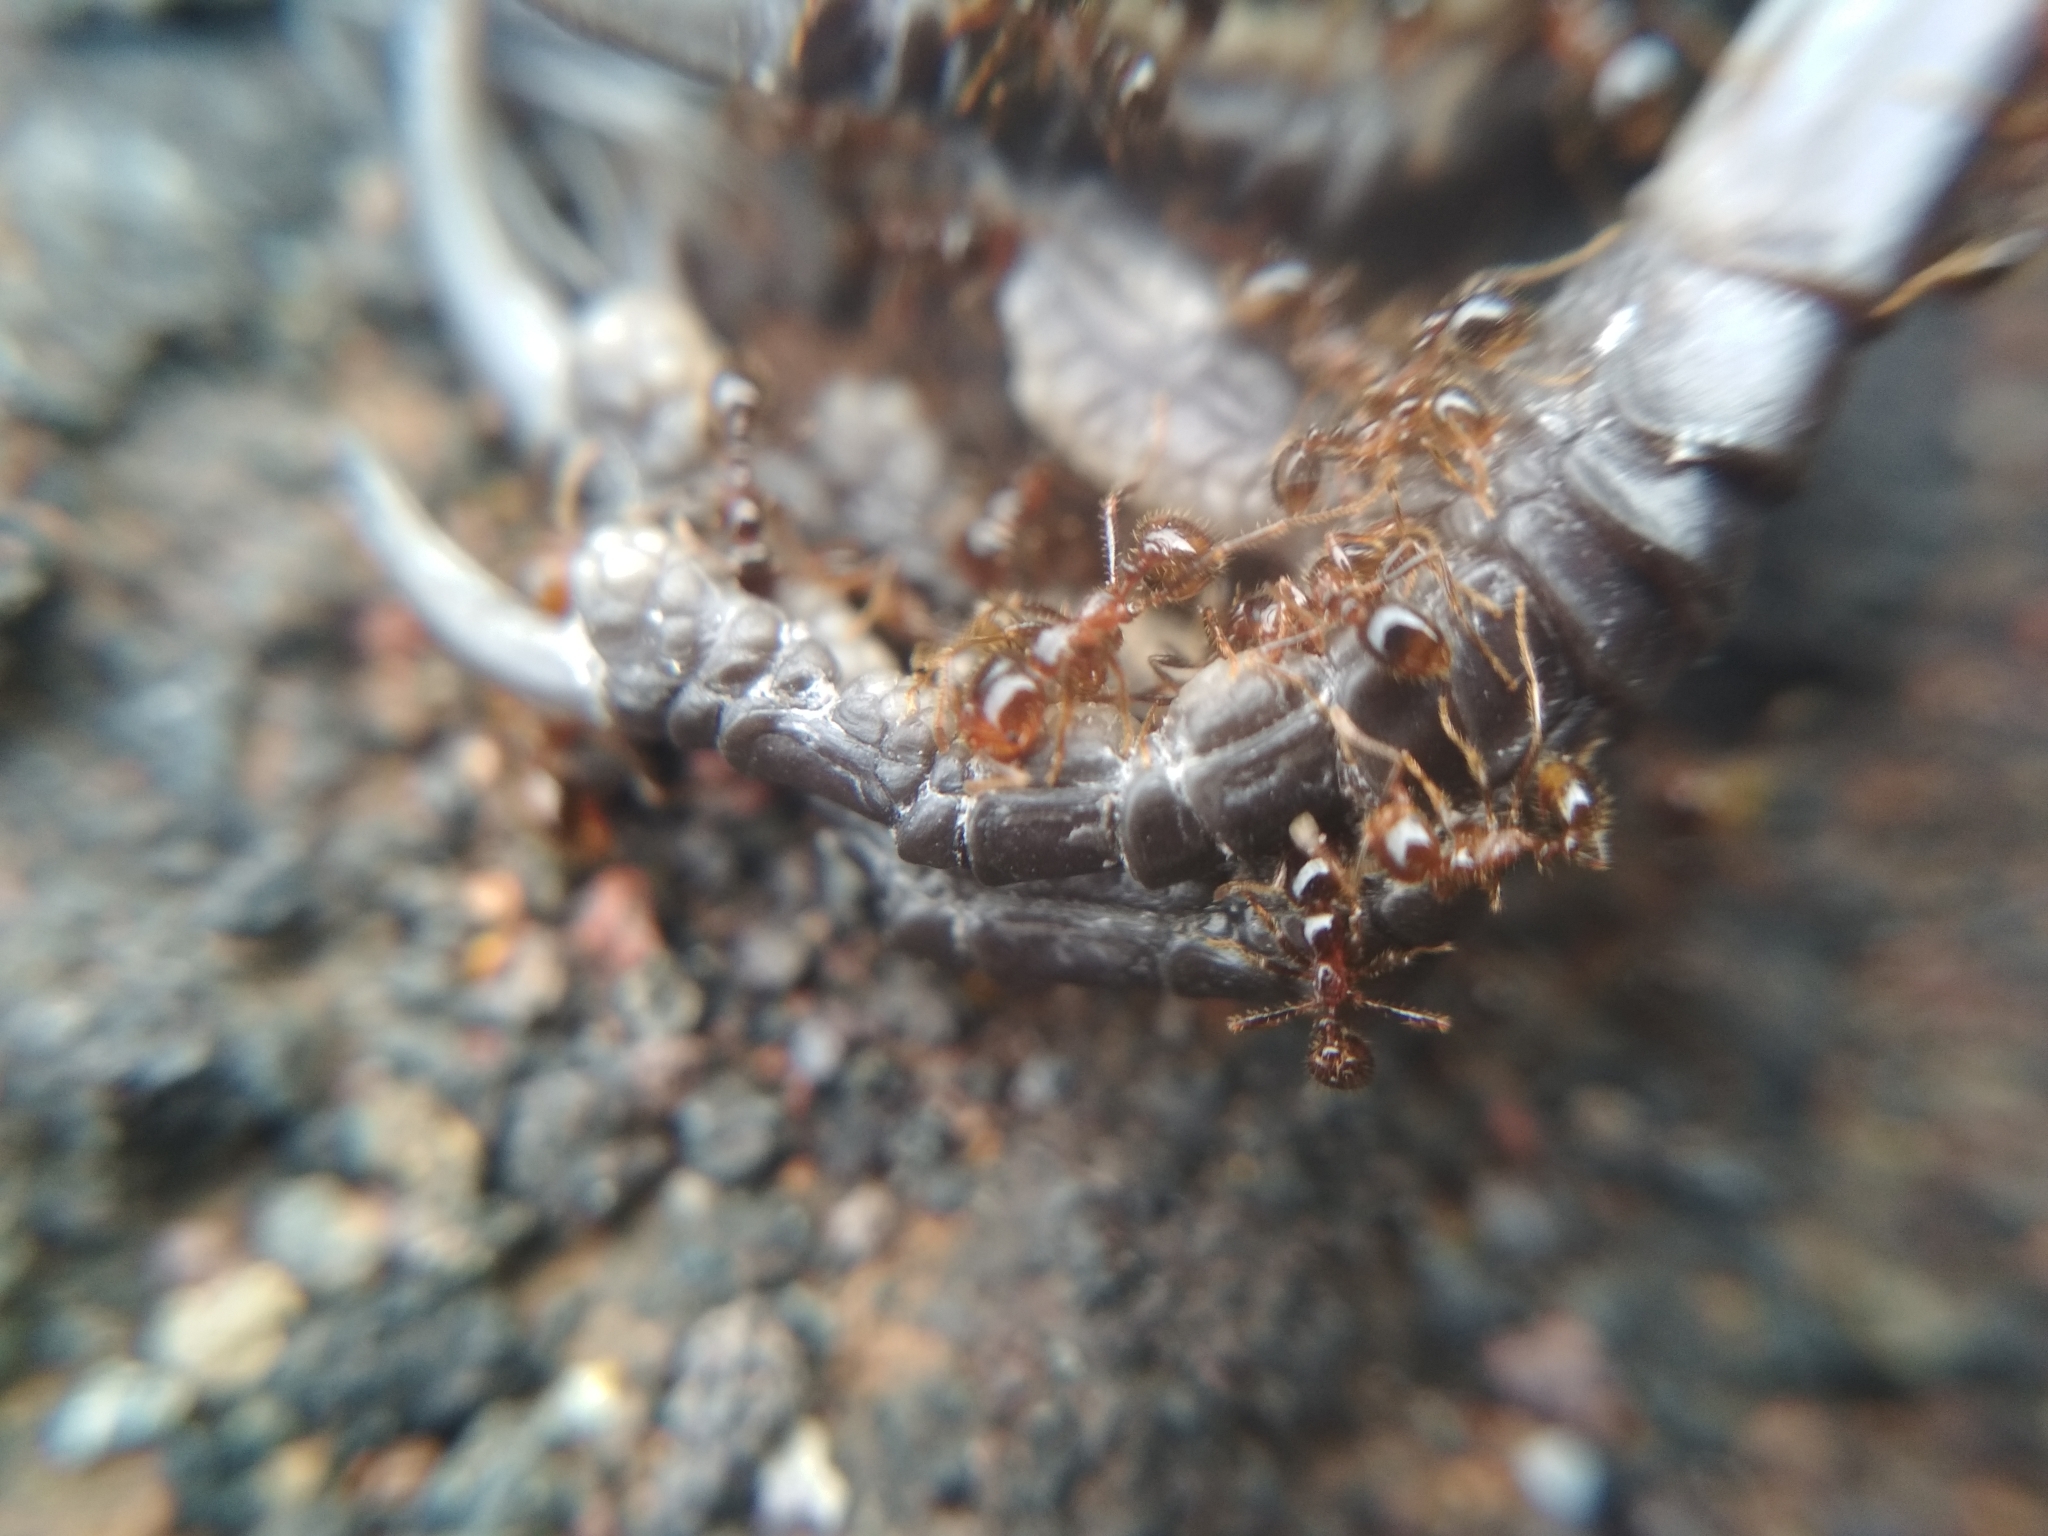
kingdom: Animalia
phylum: Arthropoda
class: Insecta
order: Hymenoptera
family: Formicidae
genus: Solenopsis
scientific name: Solenopsis geminata
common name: Tropical fire ant
